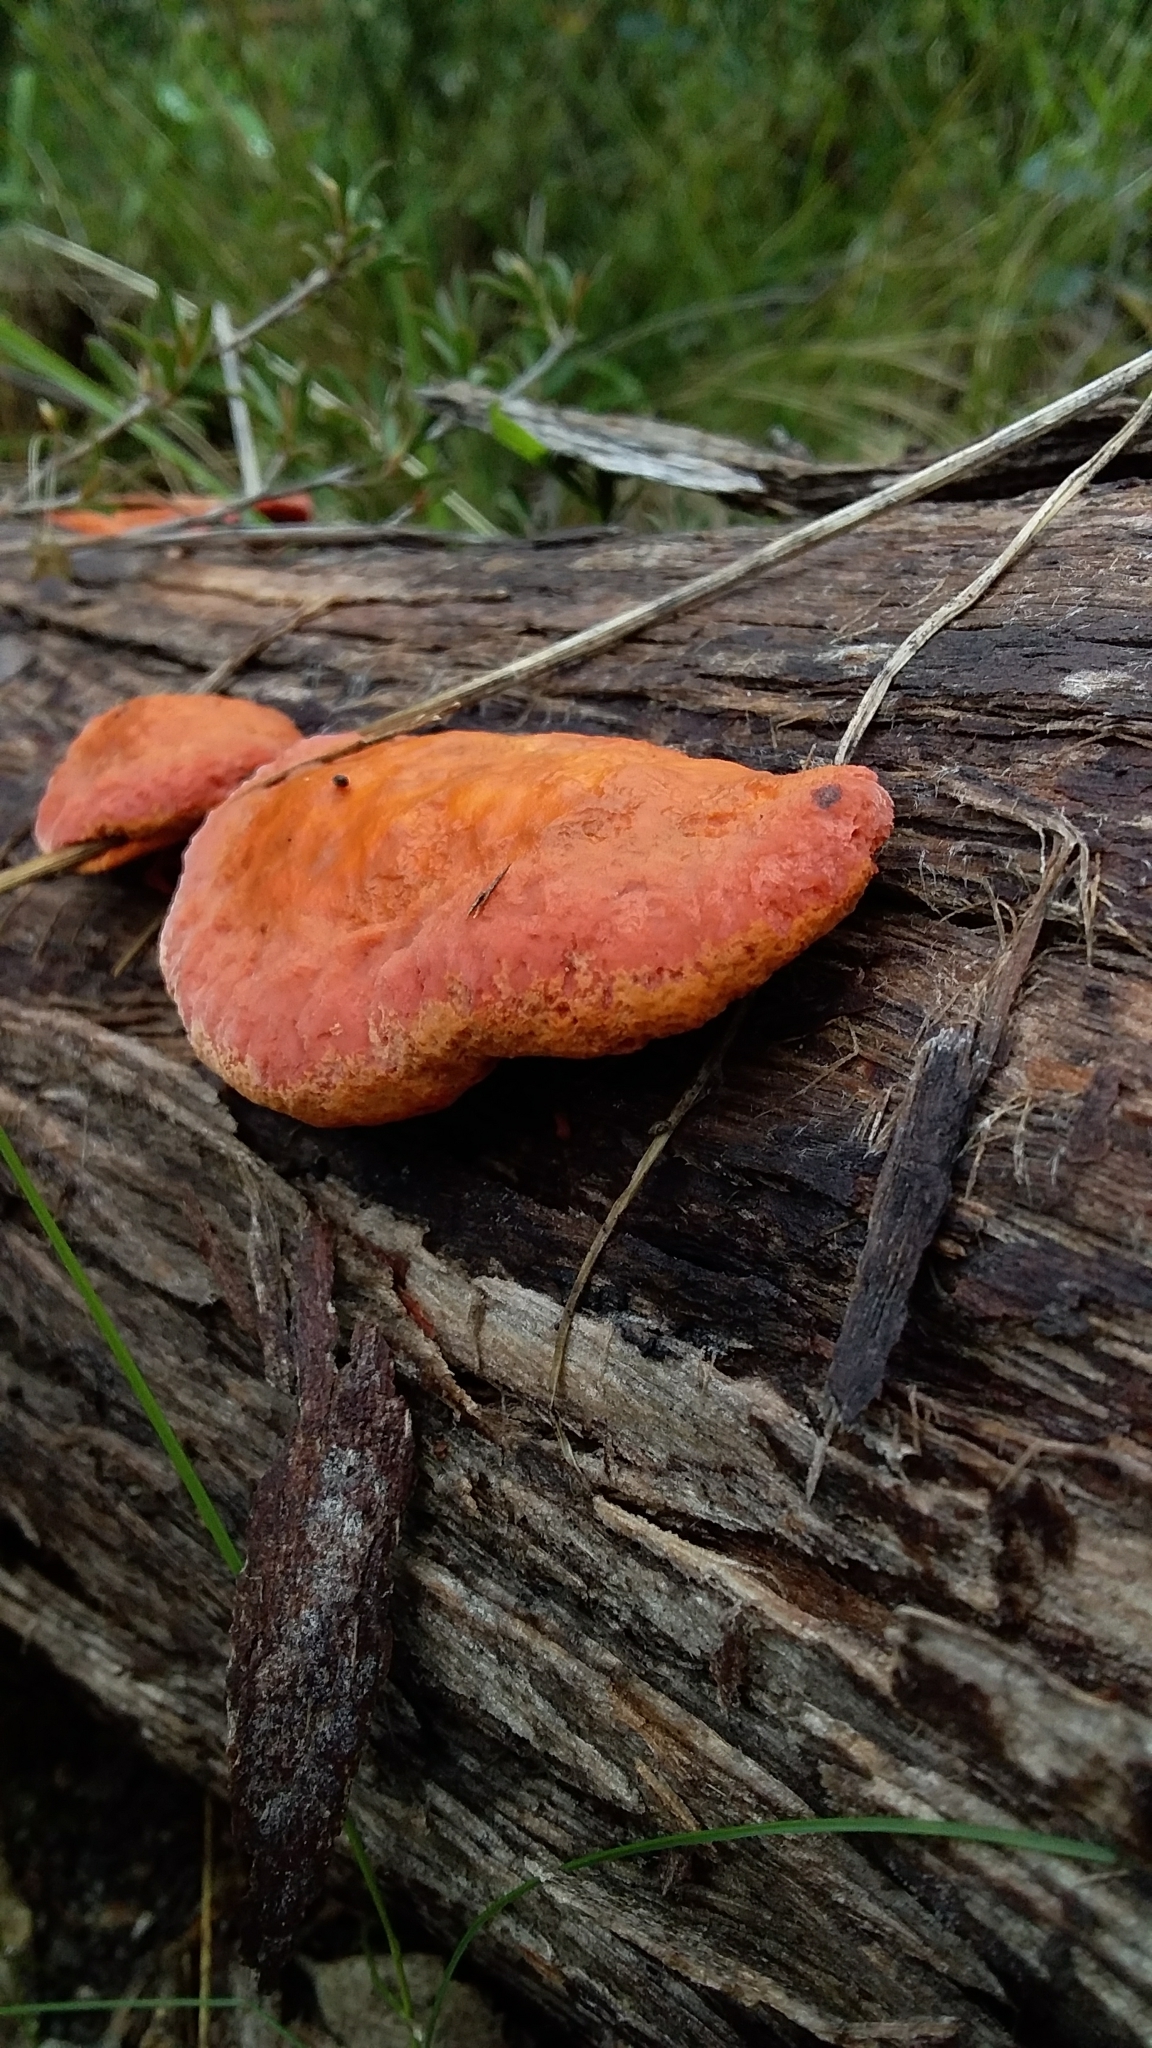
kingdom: Fungi
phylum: Basidiomycota
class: Agaricomycetes
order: Polyporales
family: Polyporaceae
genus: Trametes
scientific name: Trametes coccinea
